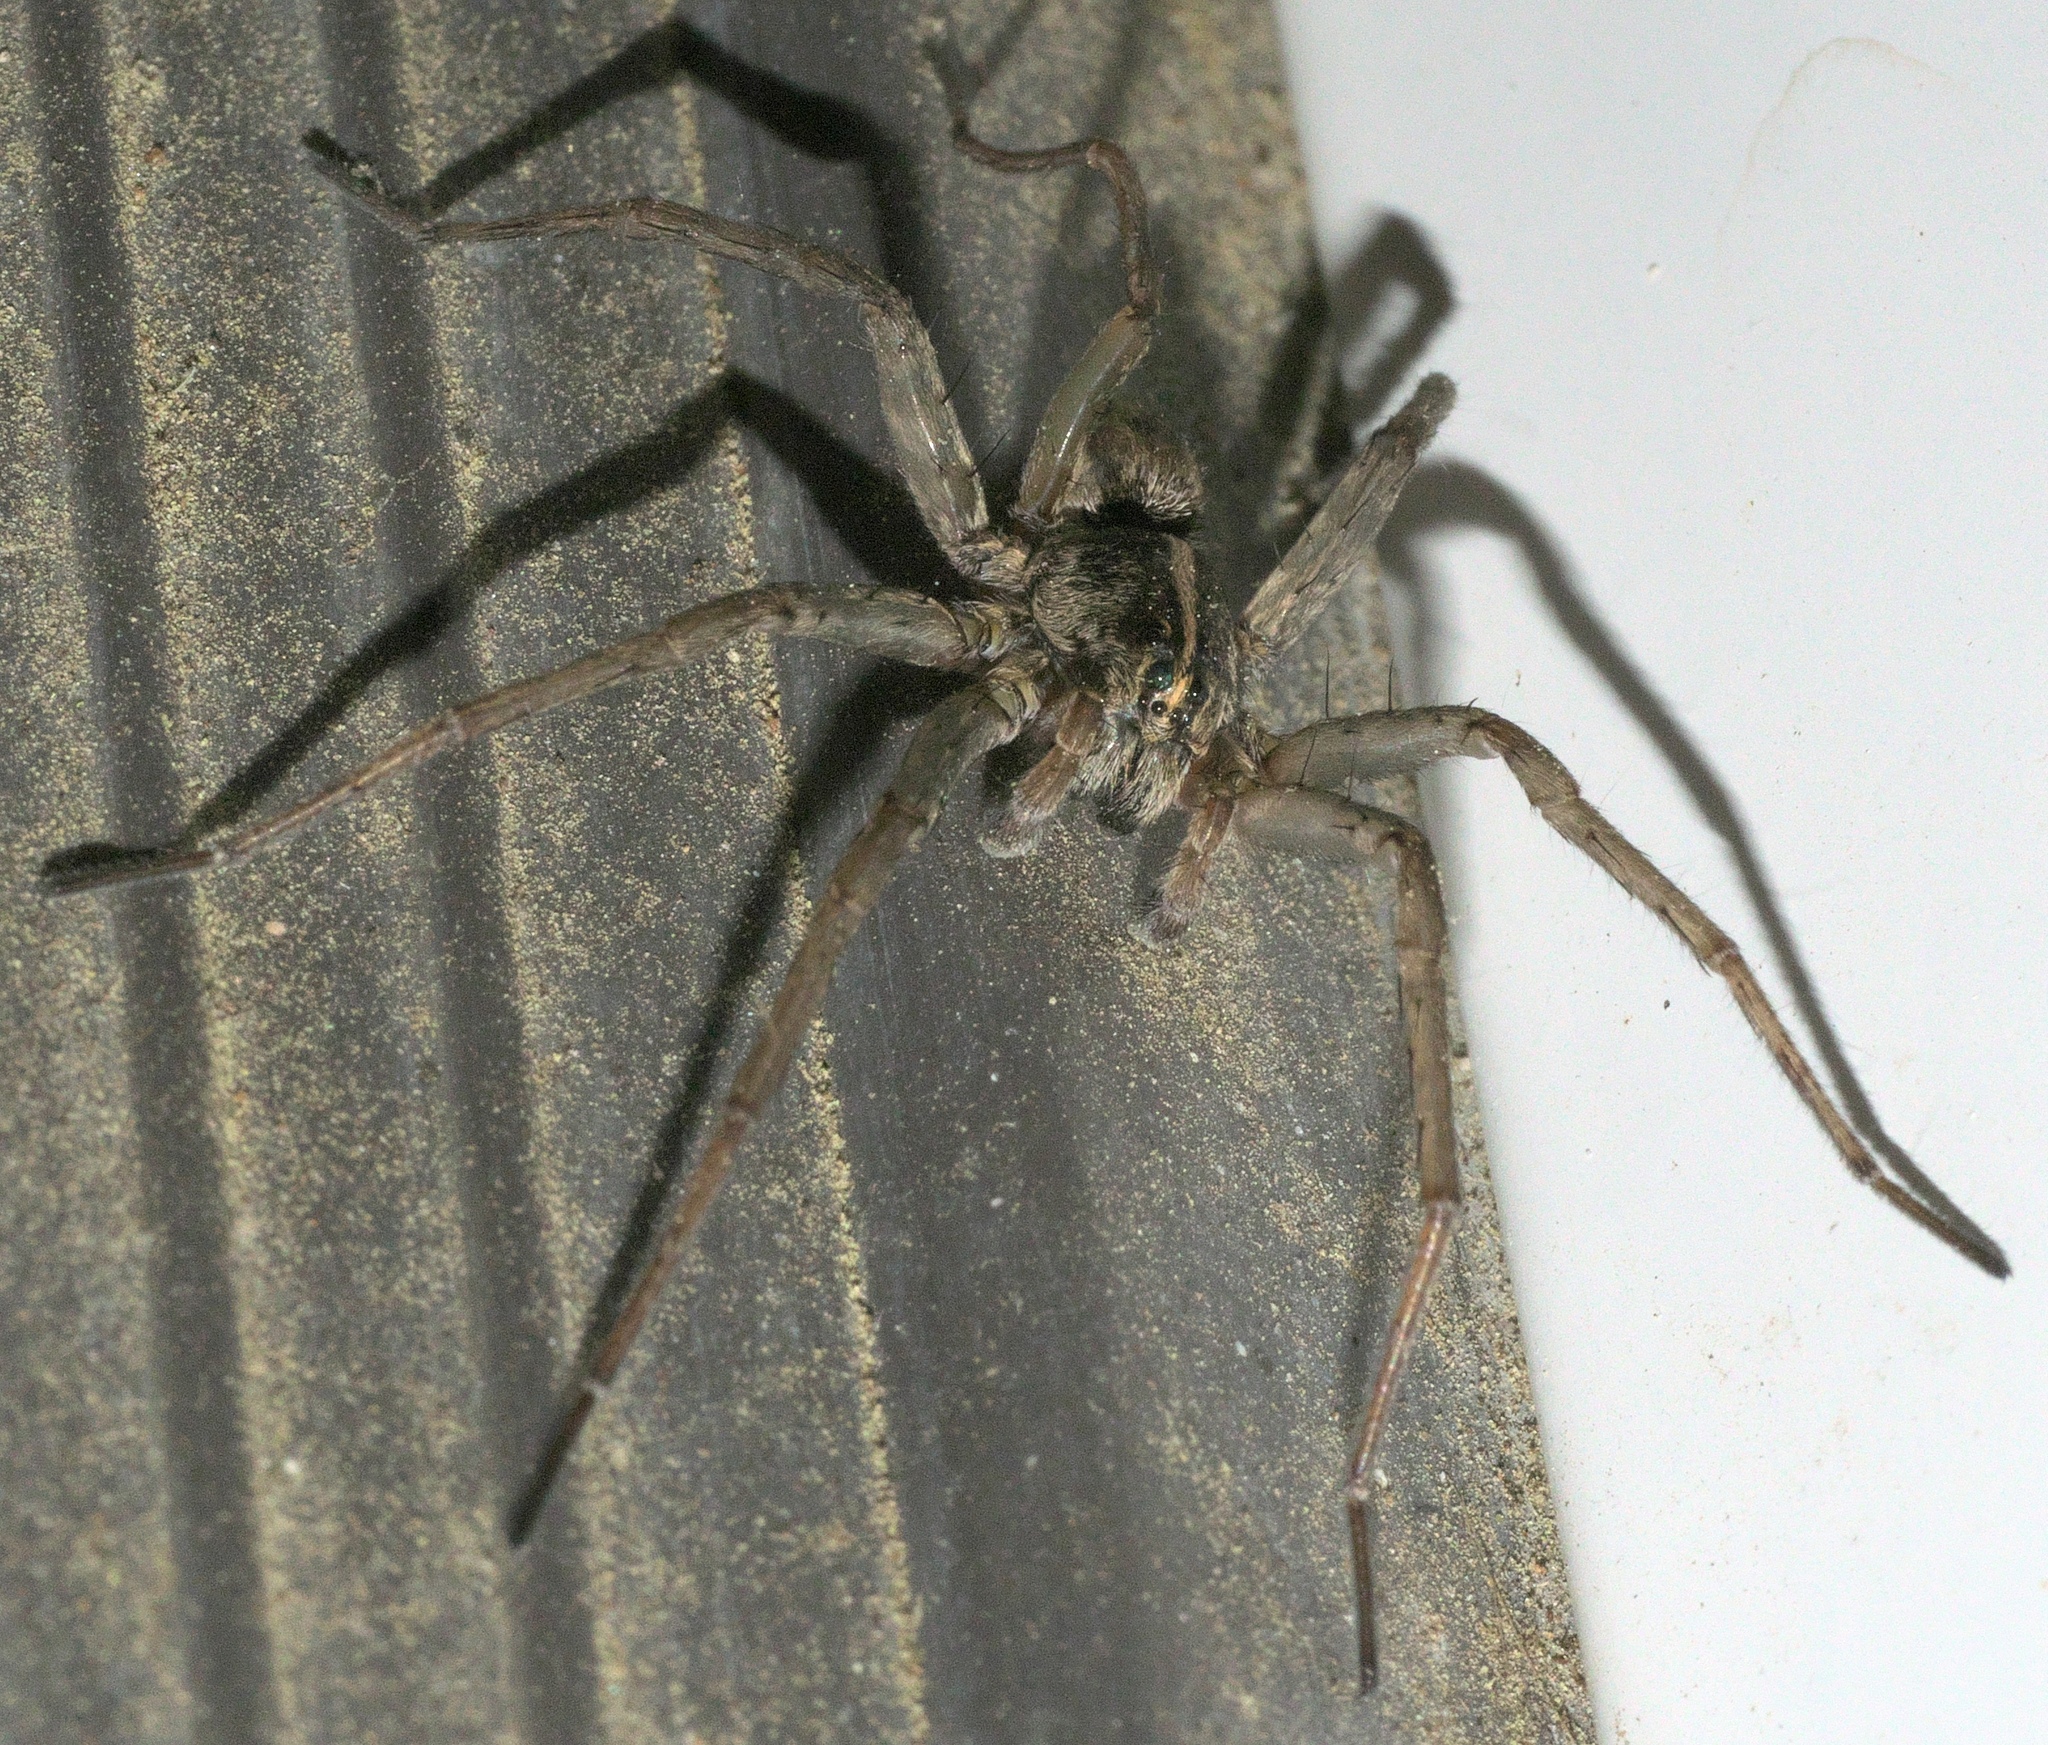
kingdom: Animalia
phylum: Arthropoda
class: Arachnida
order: Araneae
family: Lycosidae
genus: Tigrosa
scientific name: Tigrosa georgicola
